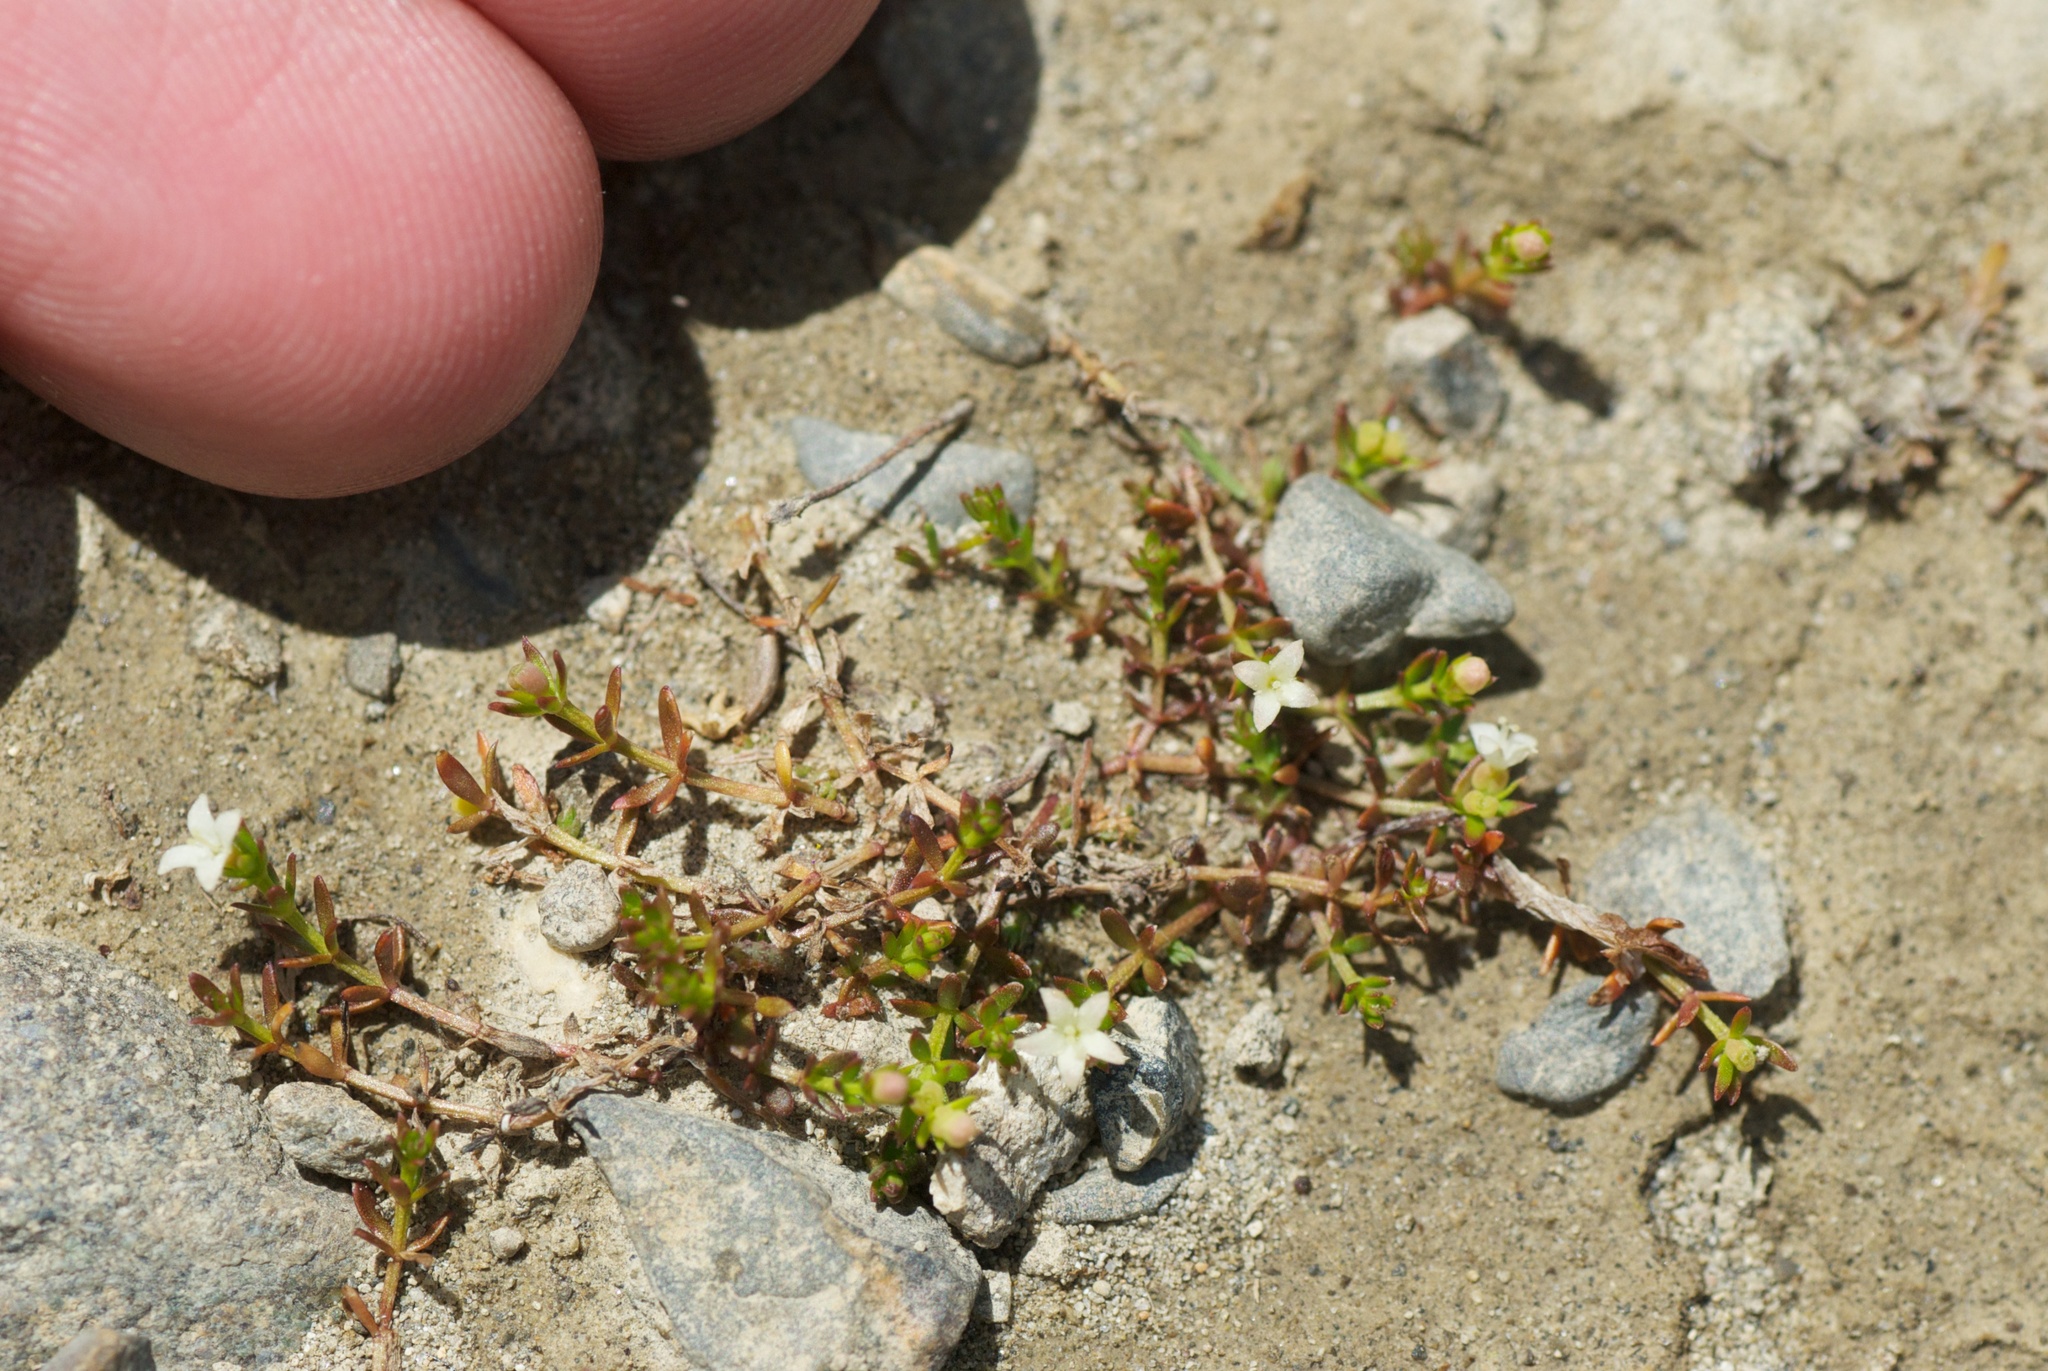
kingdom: Plantae
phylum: Tracheophyta
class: Magnoliopsida
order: Gentianales
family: Rubiaceae
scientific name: Rubiaceae
